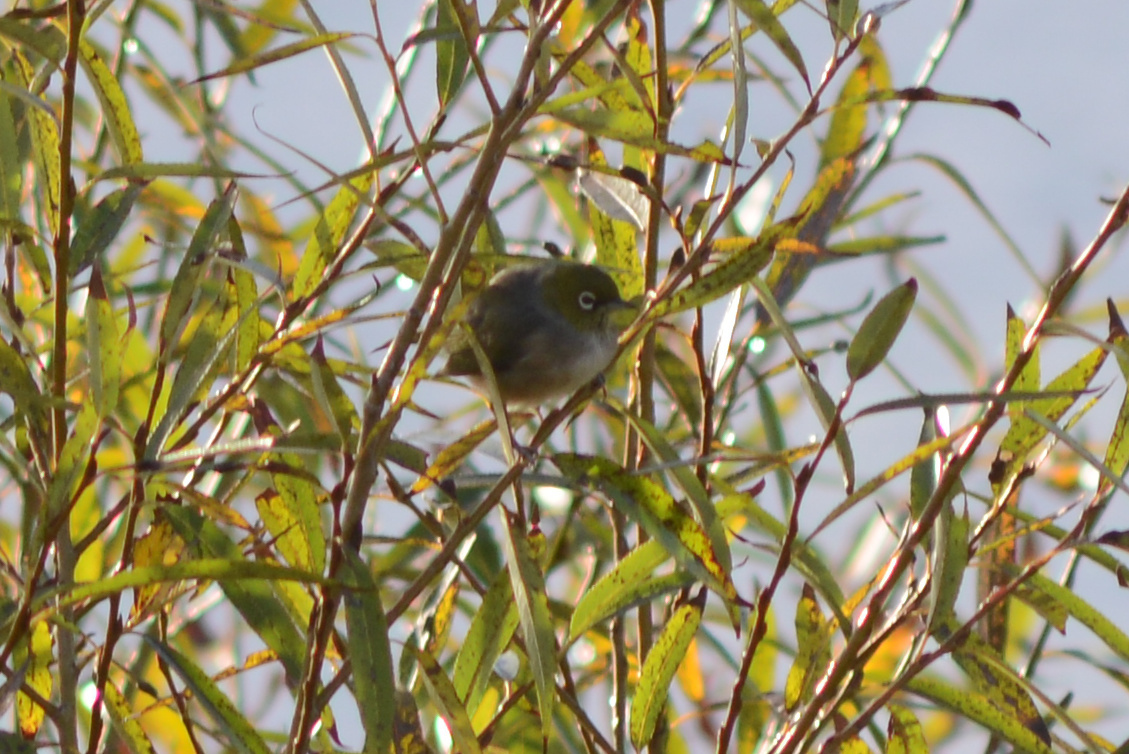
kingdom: Animalia
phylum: Chordata
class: Aves
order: Passeriformes
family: Zosteropidae
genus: Zosterops
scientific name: Zosterops lateralis
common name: Silvereye
